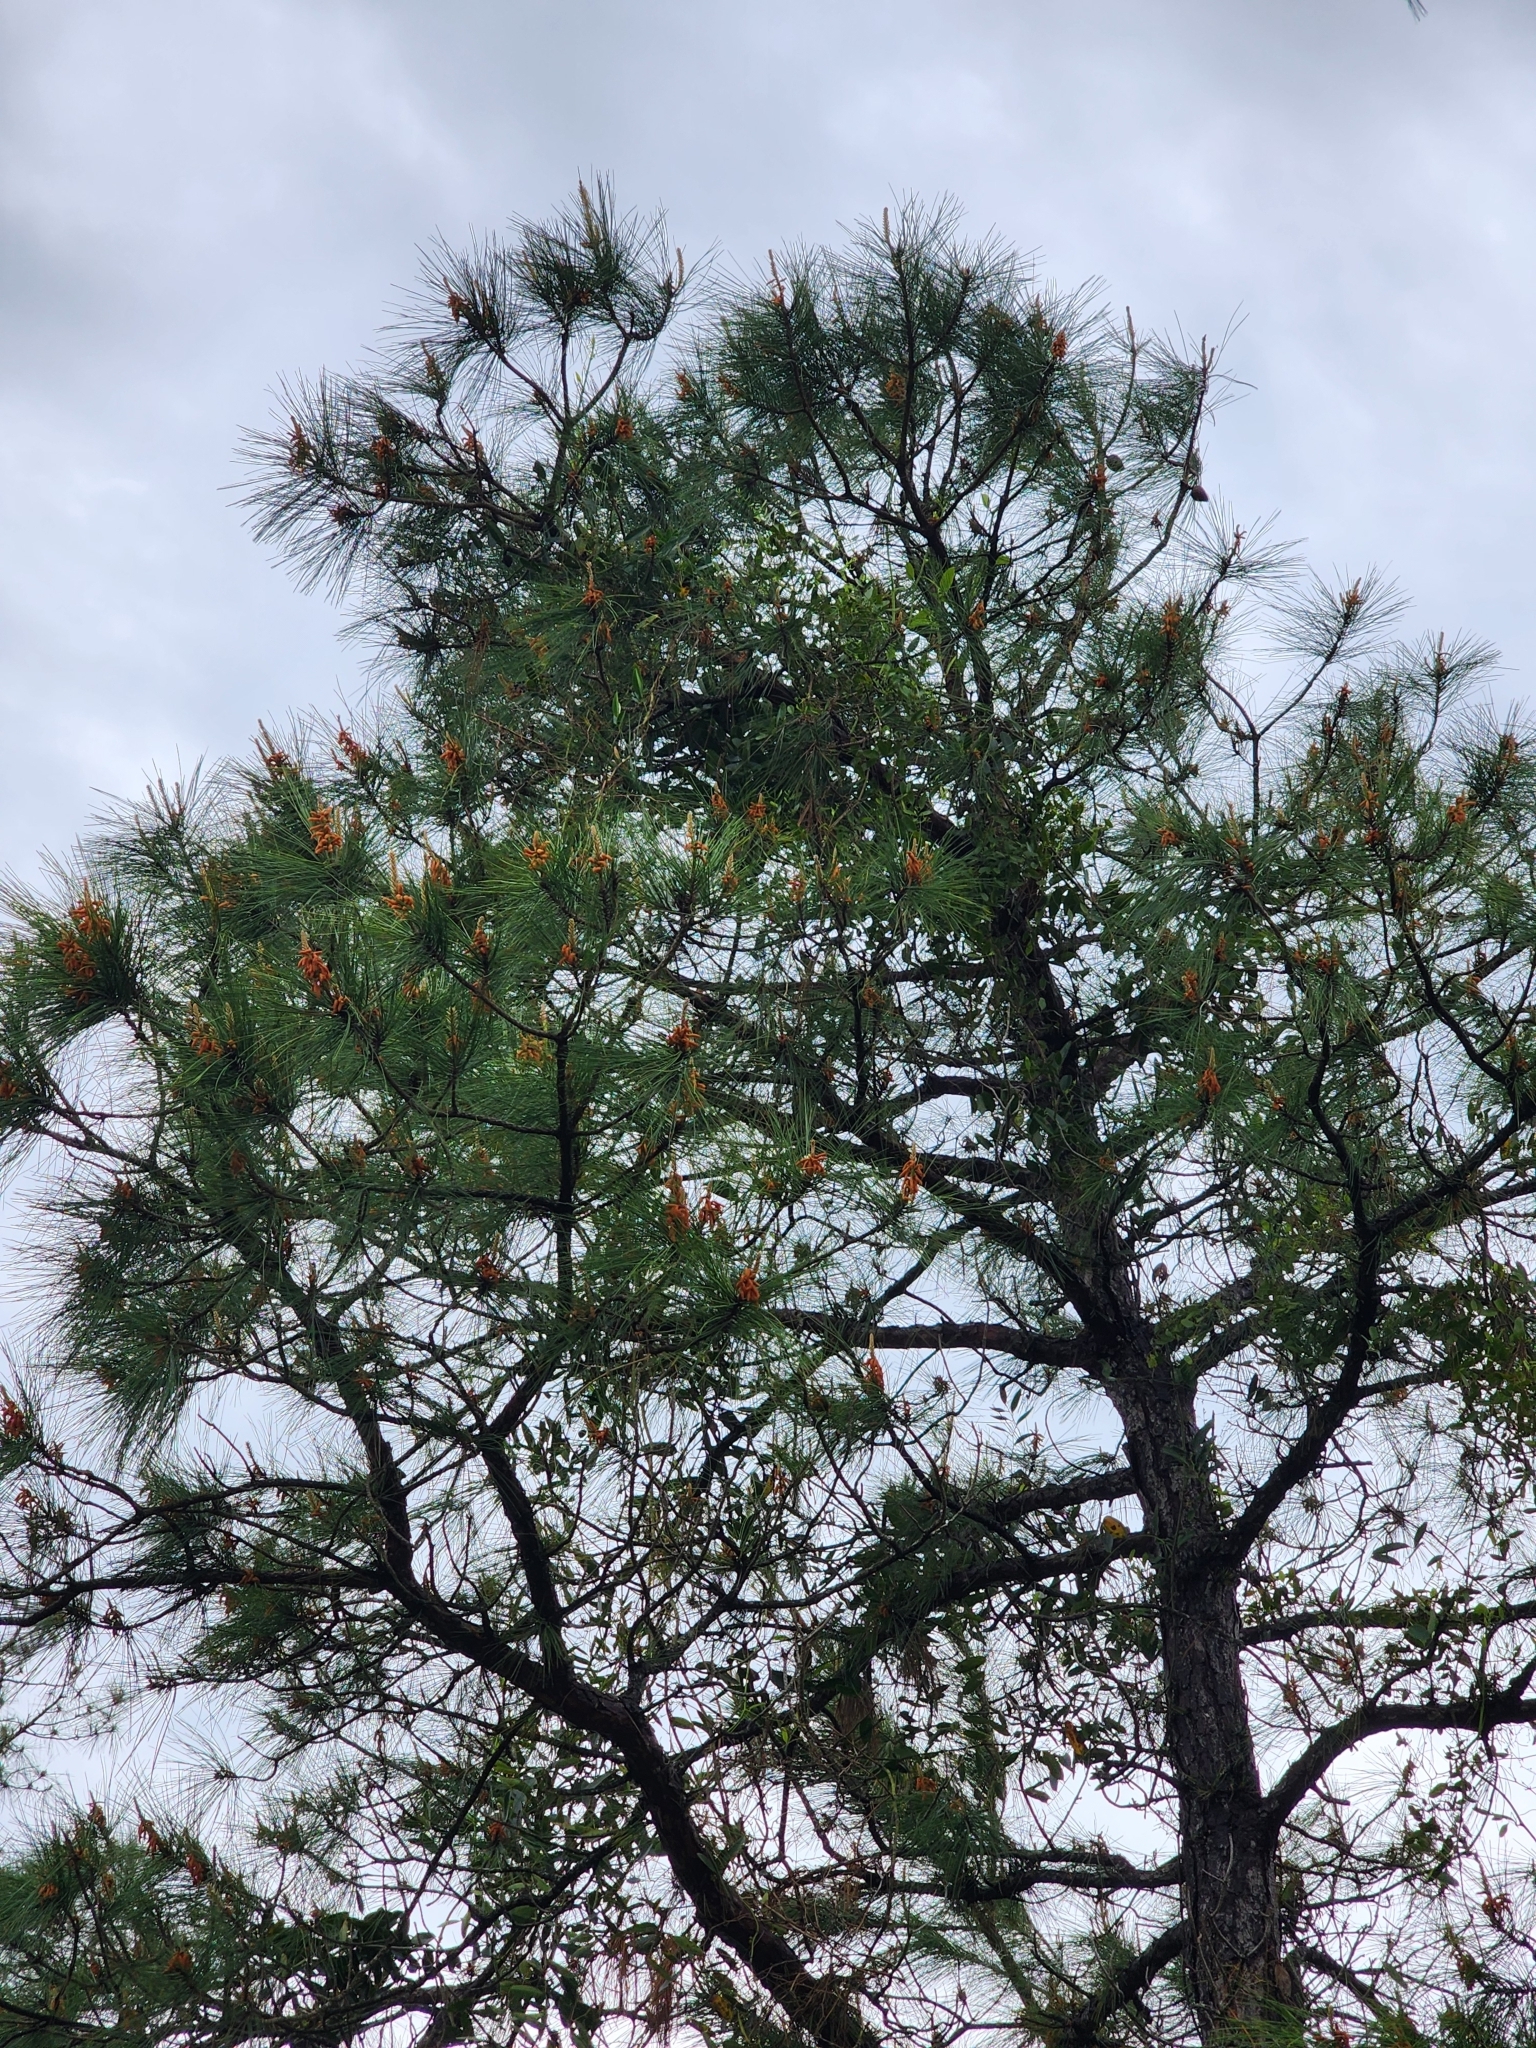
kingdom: Plantae
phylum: Tracheophyta
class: Pinopsida
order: Pinales
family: Pinaceae
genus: Pinus
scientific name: Pinus serotina
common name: Marsh pine
